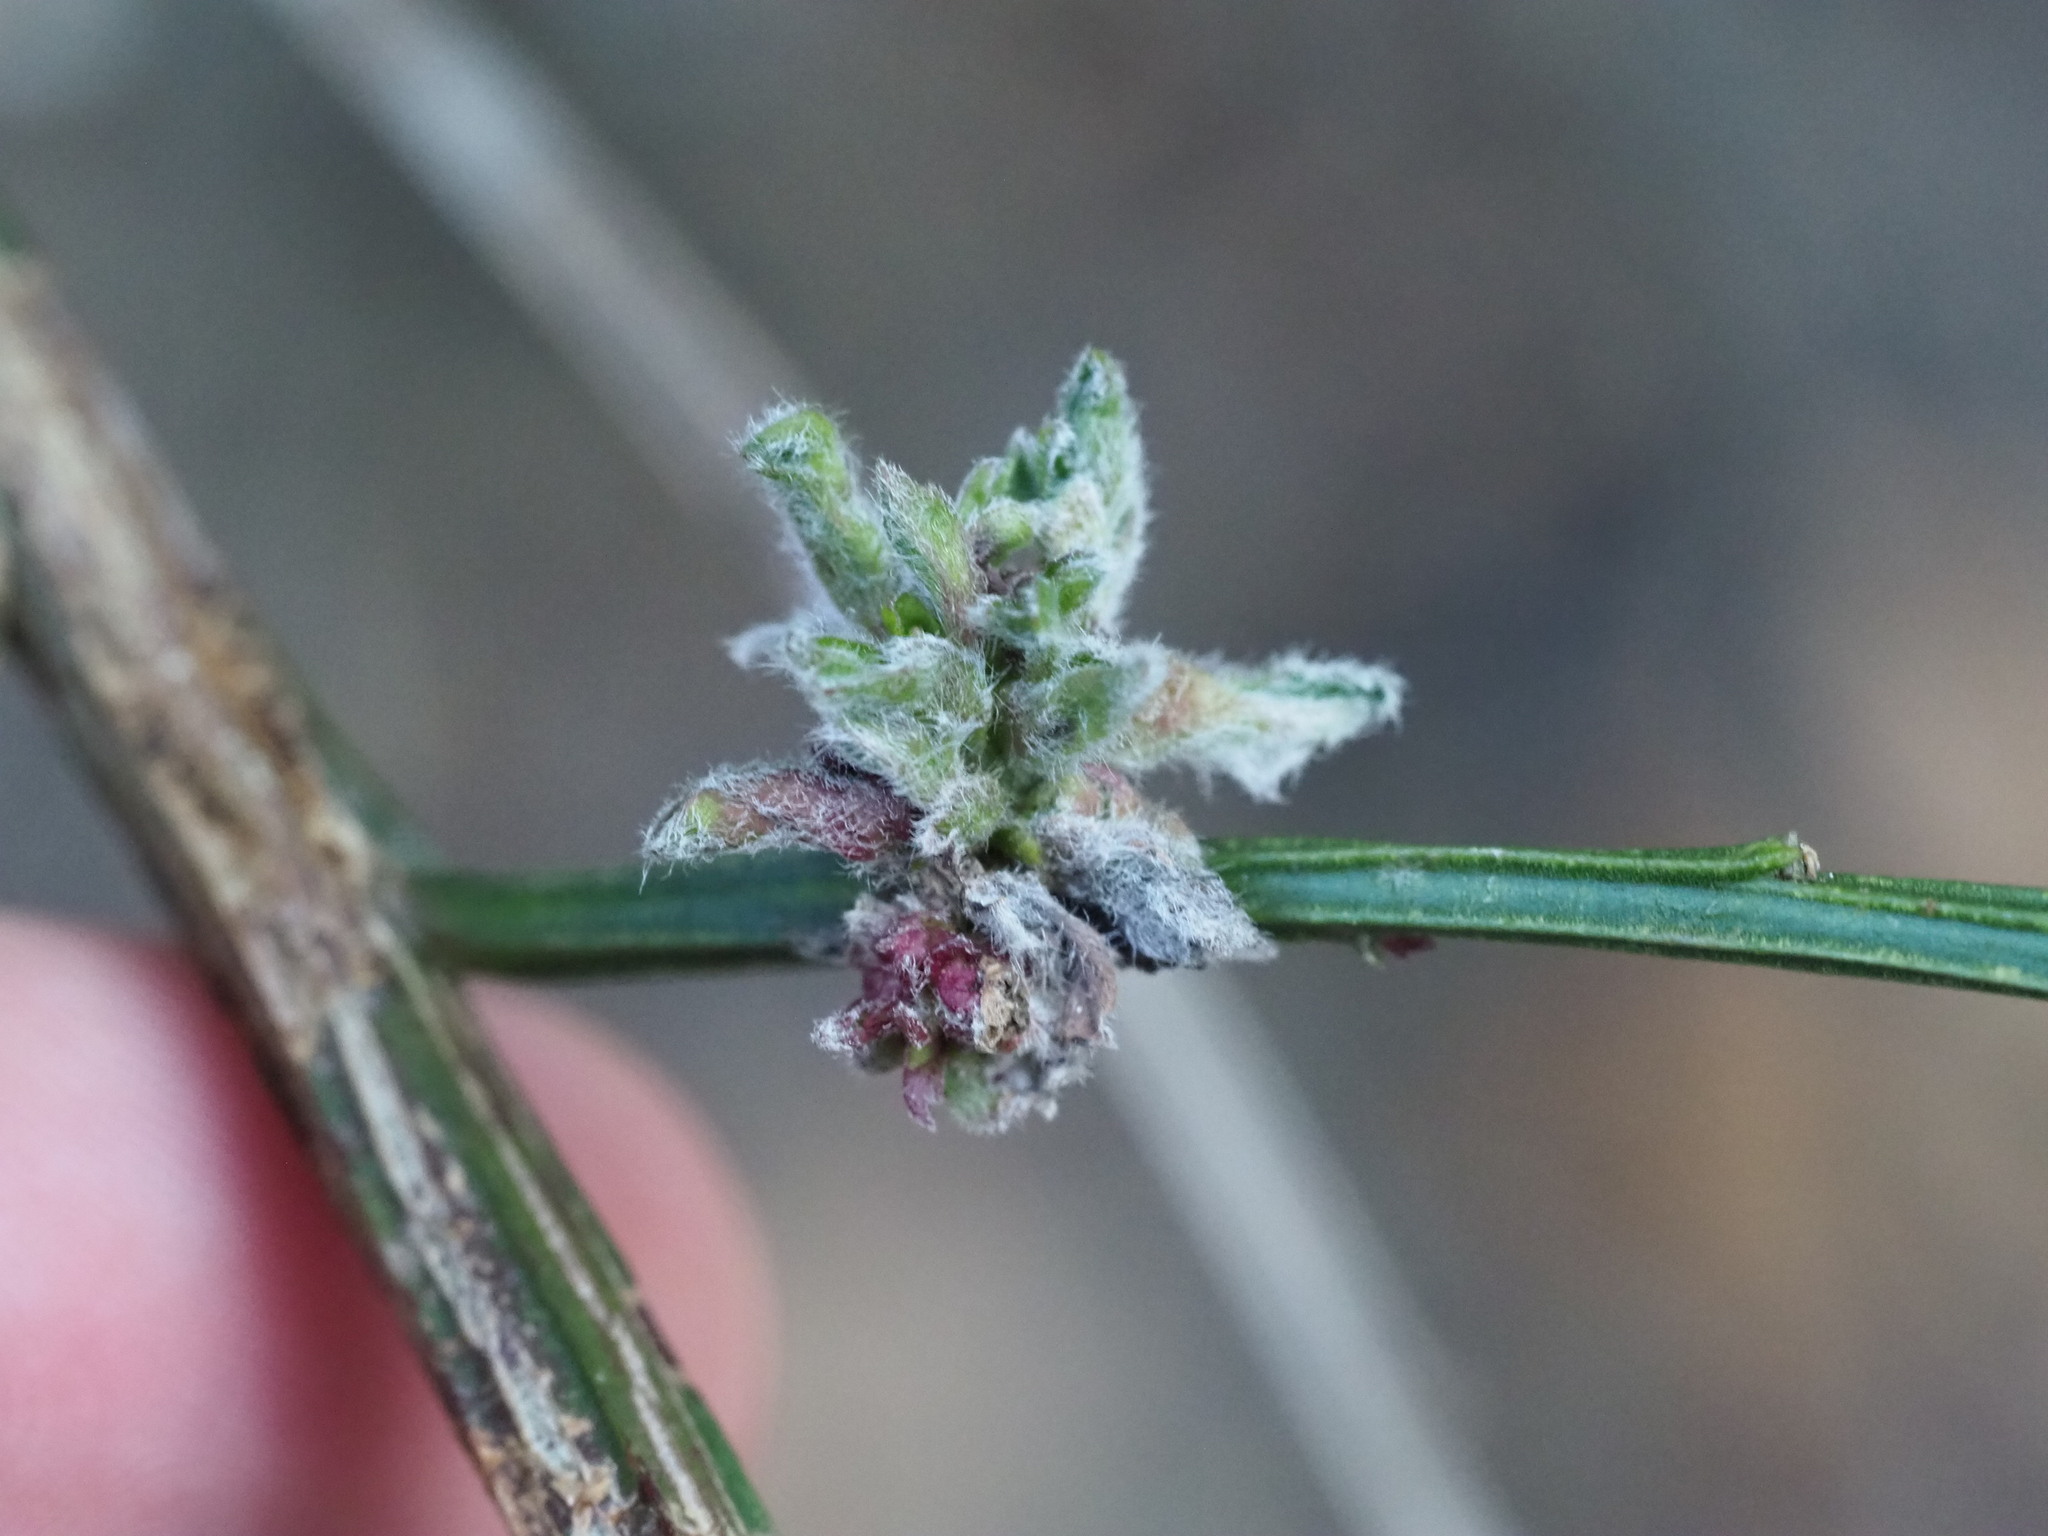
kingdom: Animalia
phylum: Arthropoda
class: Arachnida
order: Trombidiformes
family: Eriophyidae
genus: Aceria
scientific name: Aceria genistae
